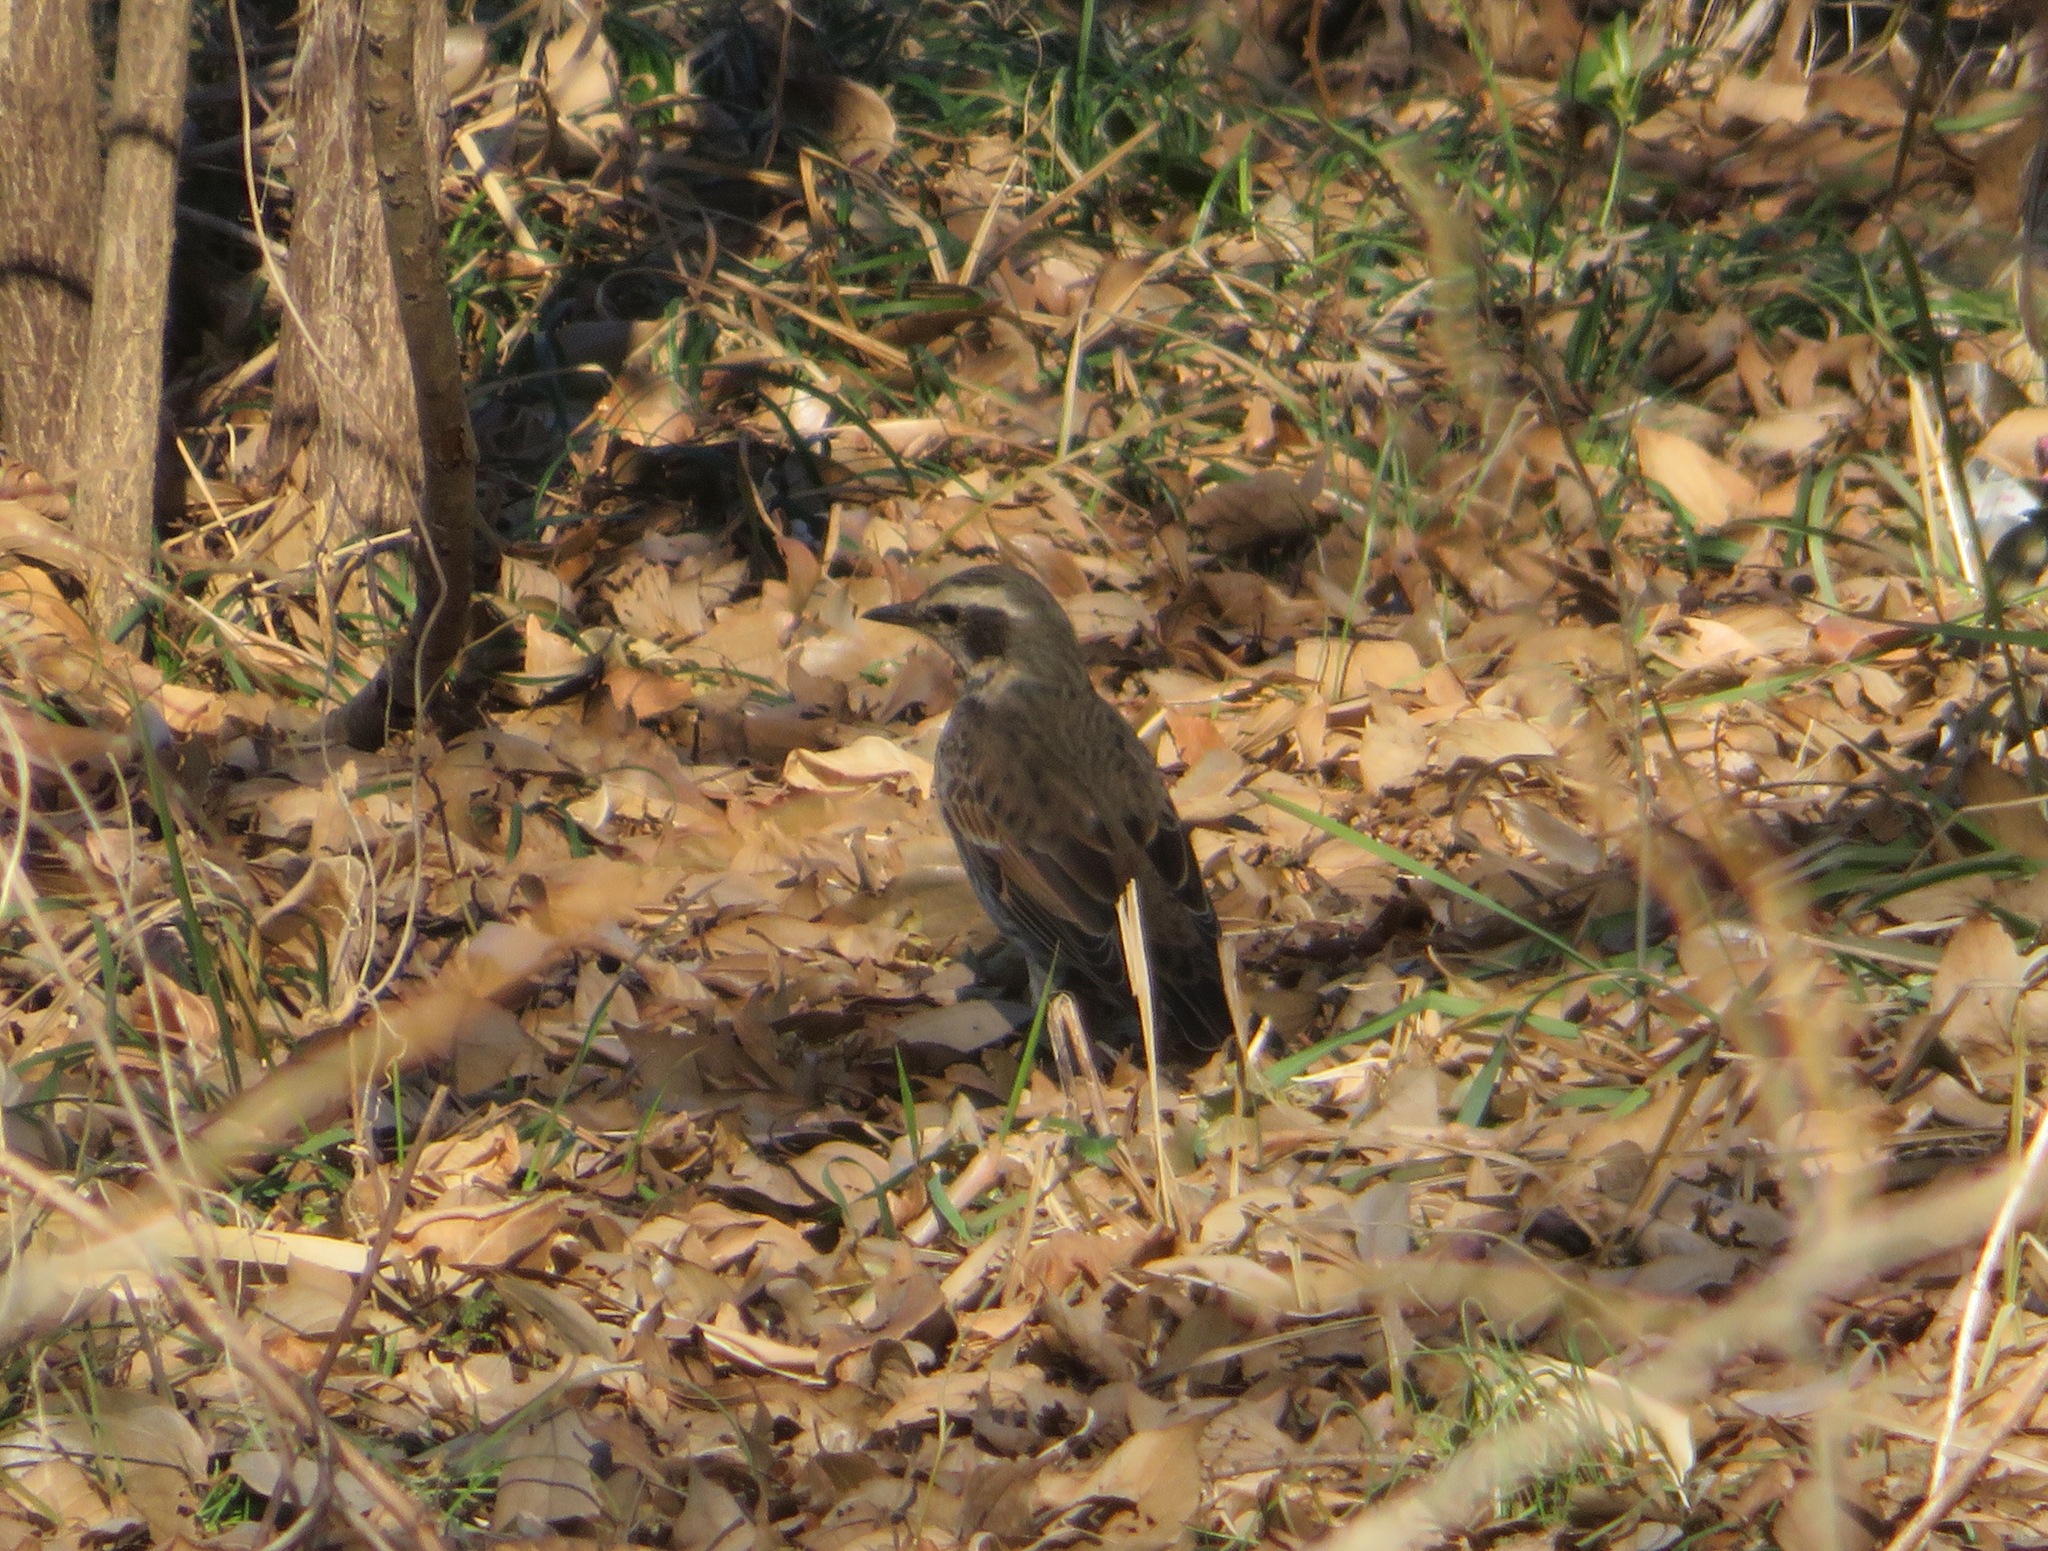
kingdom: Animalia
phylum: Chordata
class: Aves
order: Passeriformes
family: Turdidae
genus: Turdus
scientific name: Turdus eunomus
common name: Dusky thrush
